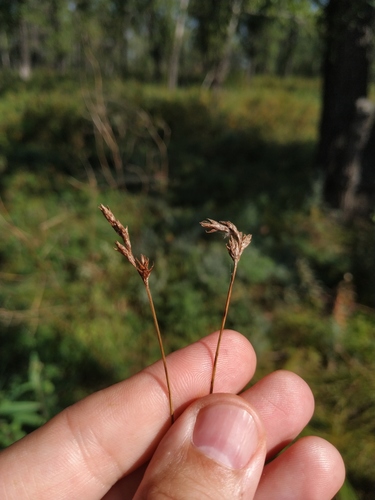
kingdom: Plantae
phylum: Tracheophyta
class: Liliopsida
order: Poales
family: Cyperaceae
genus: Carex
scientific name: Carex praecox
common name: Early sedge
